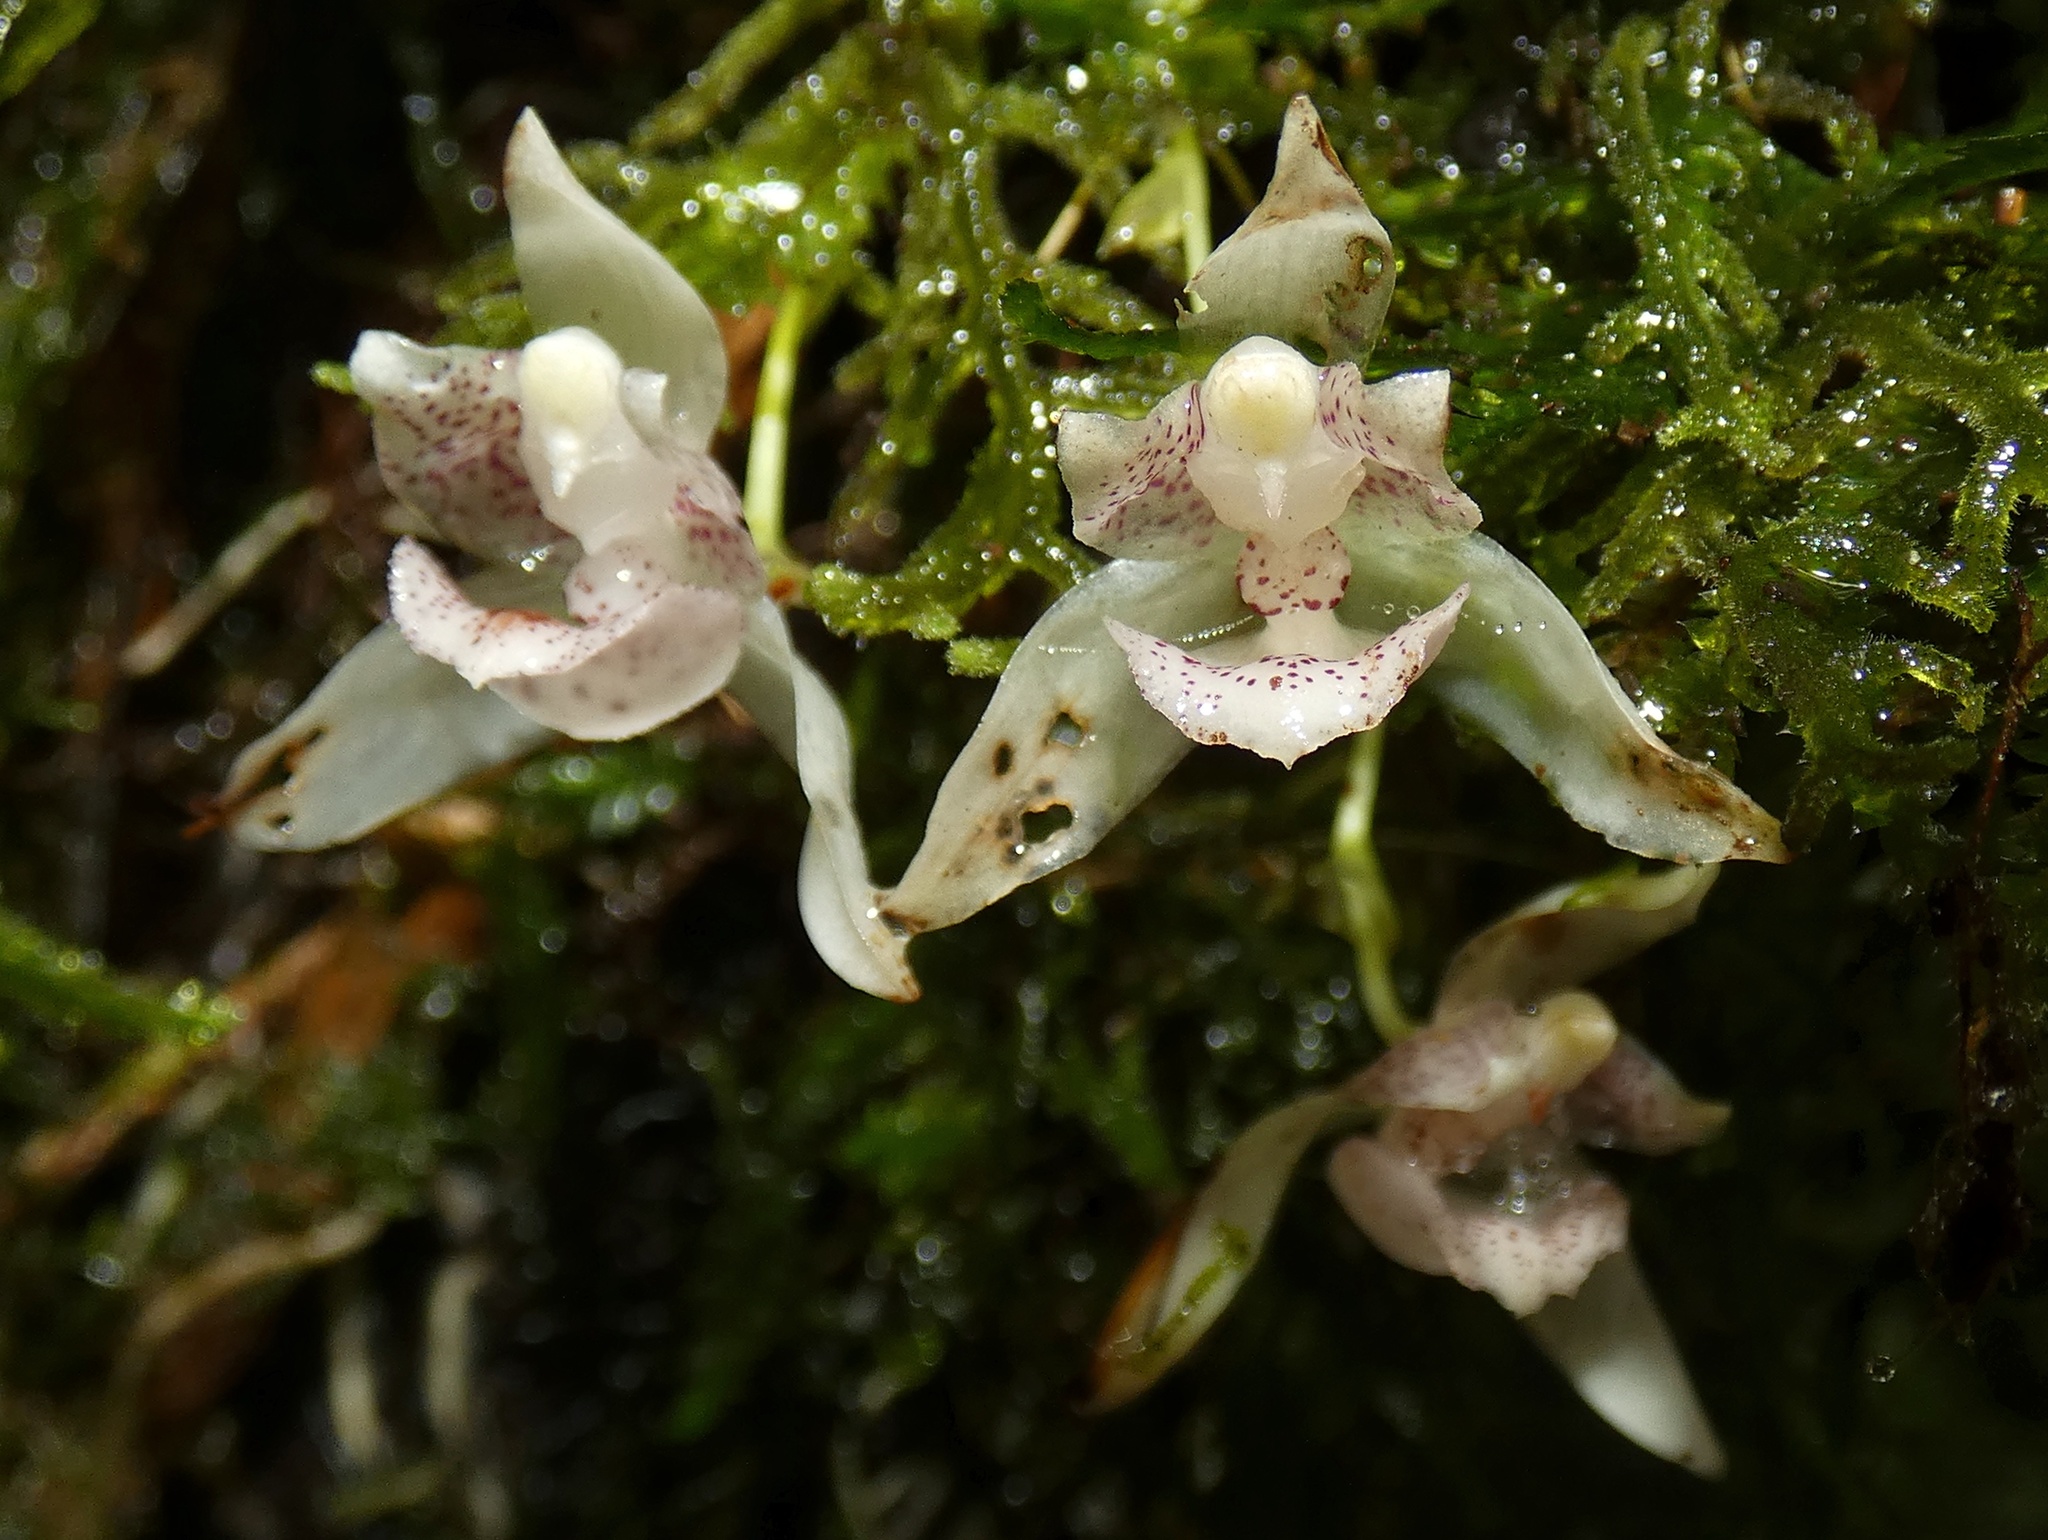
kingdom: Plantae
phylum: Tracheophyta
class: Liliopsida
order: Asparagales
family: Orchidaceae
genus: Kefersteinia
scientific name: Kefersteinia alata
